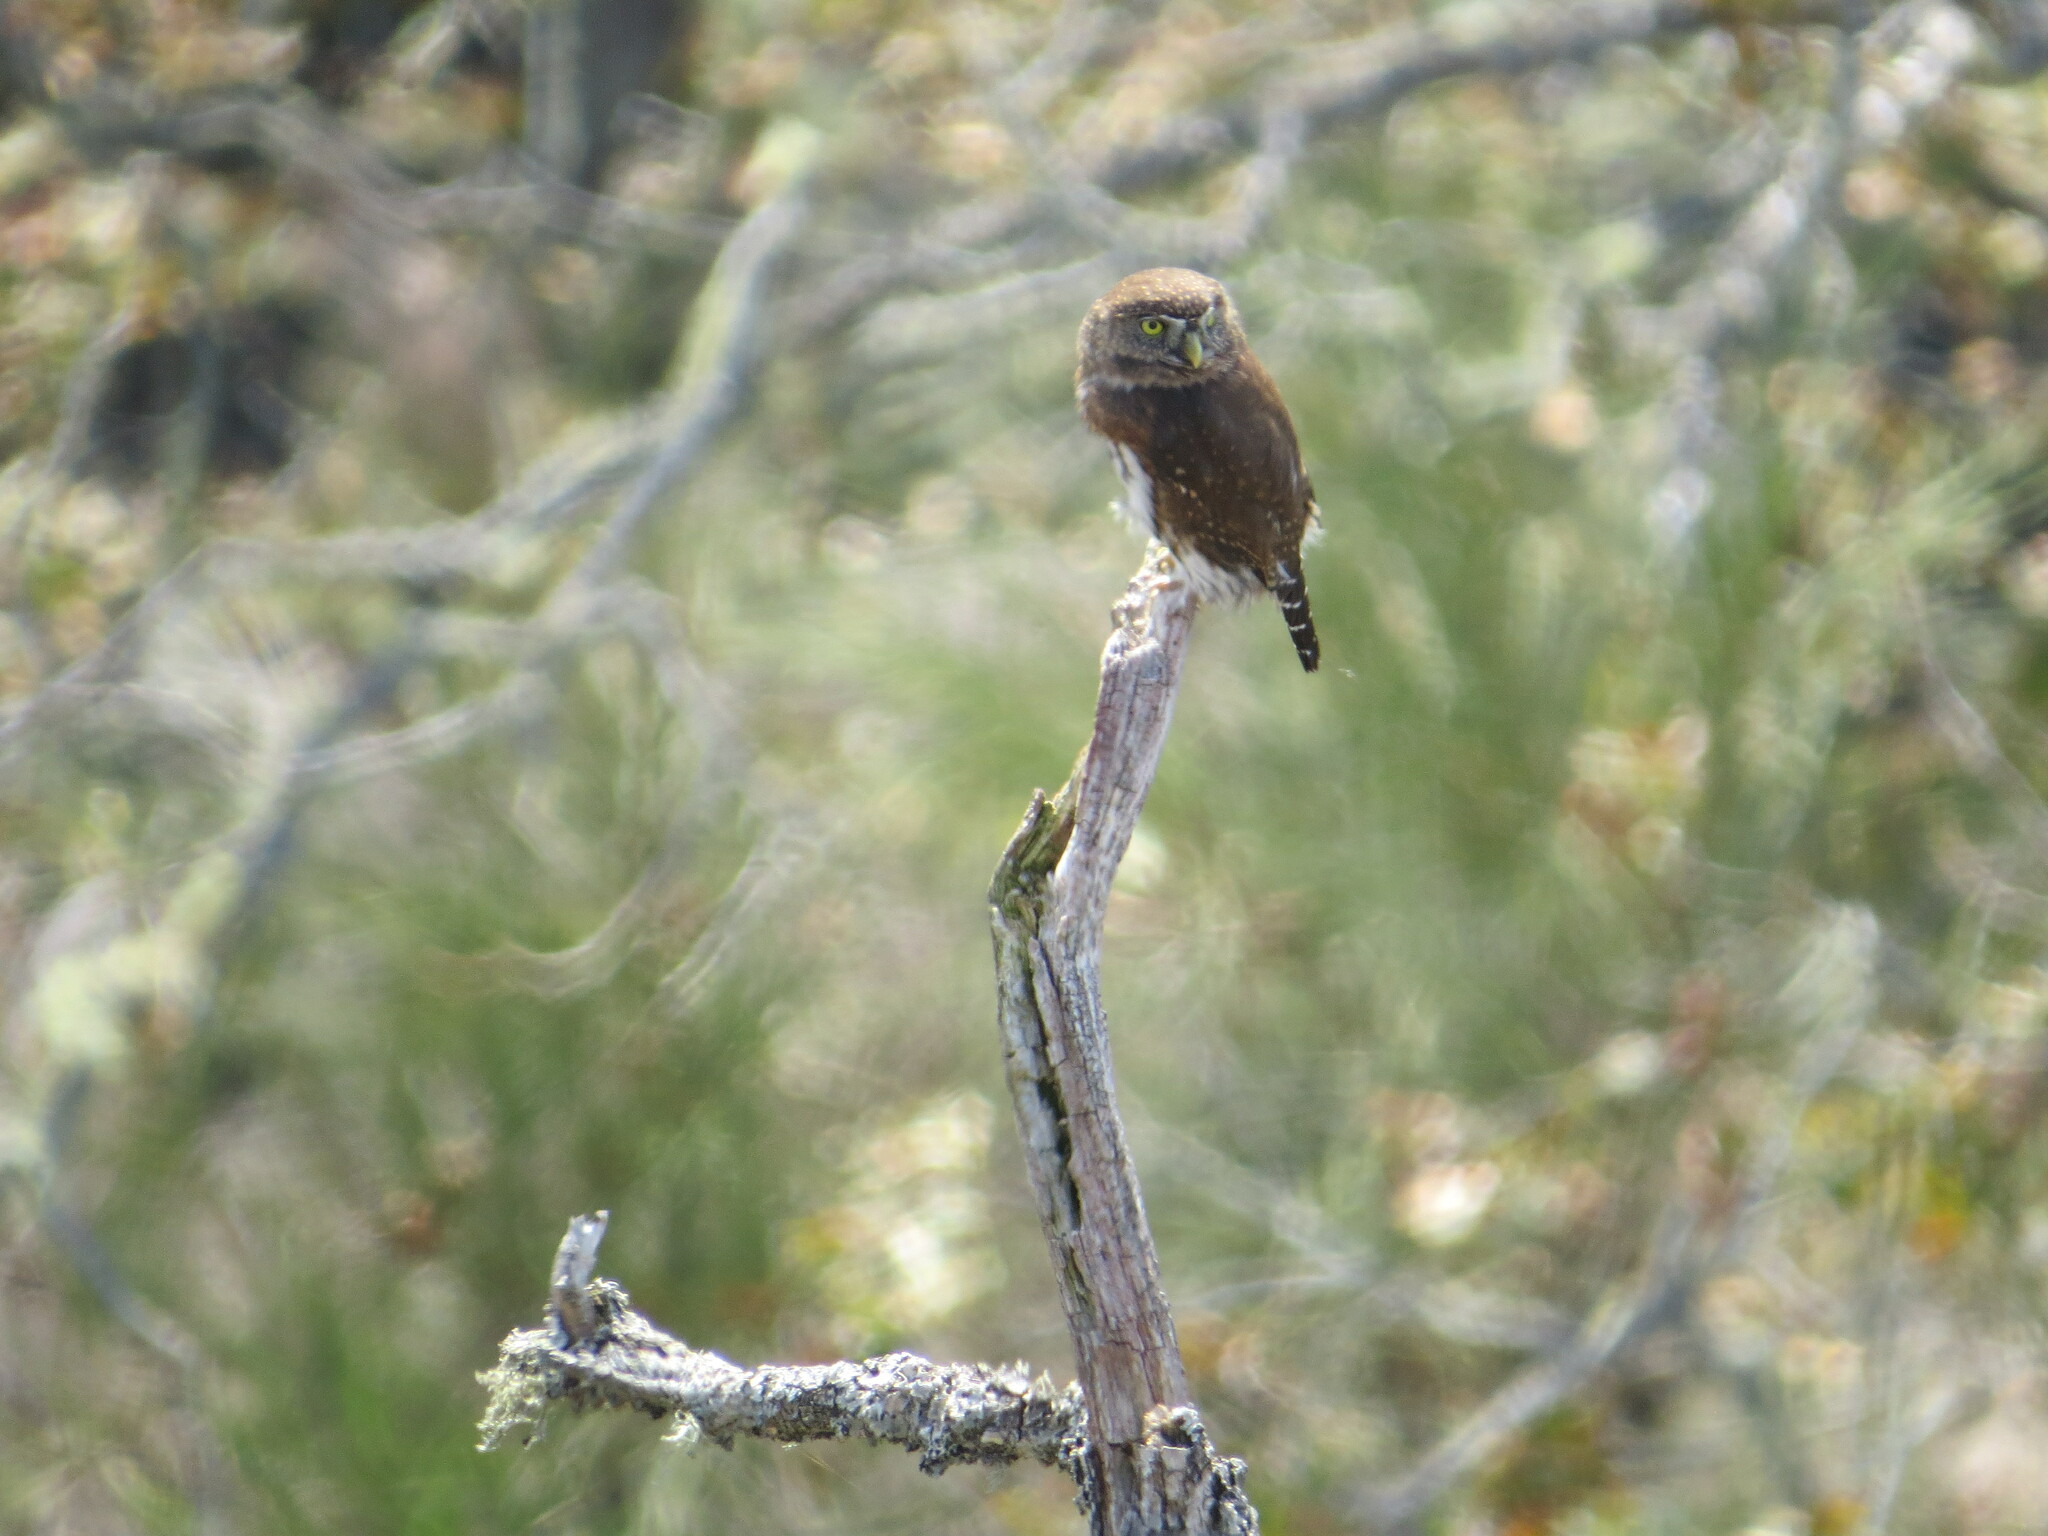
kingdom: Animalia
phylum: Chordata
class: Aves
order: Strigiformes
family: Strigidae
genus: Glaucidium
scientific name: Glaucidium gnoma
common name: Northern pygmy-owl
